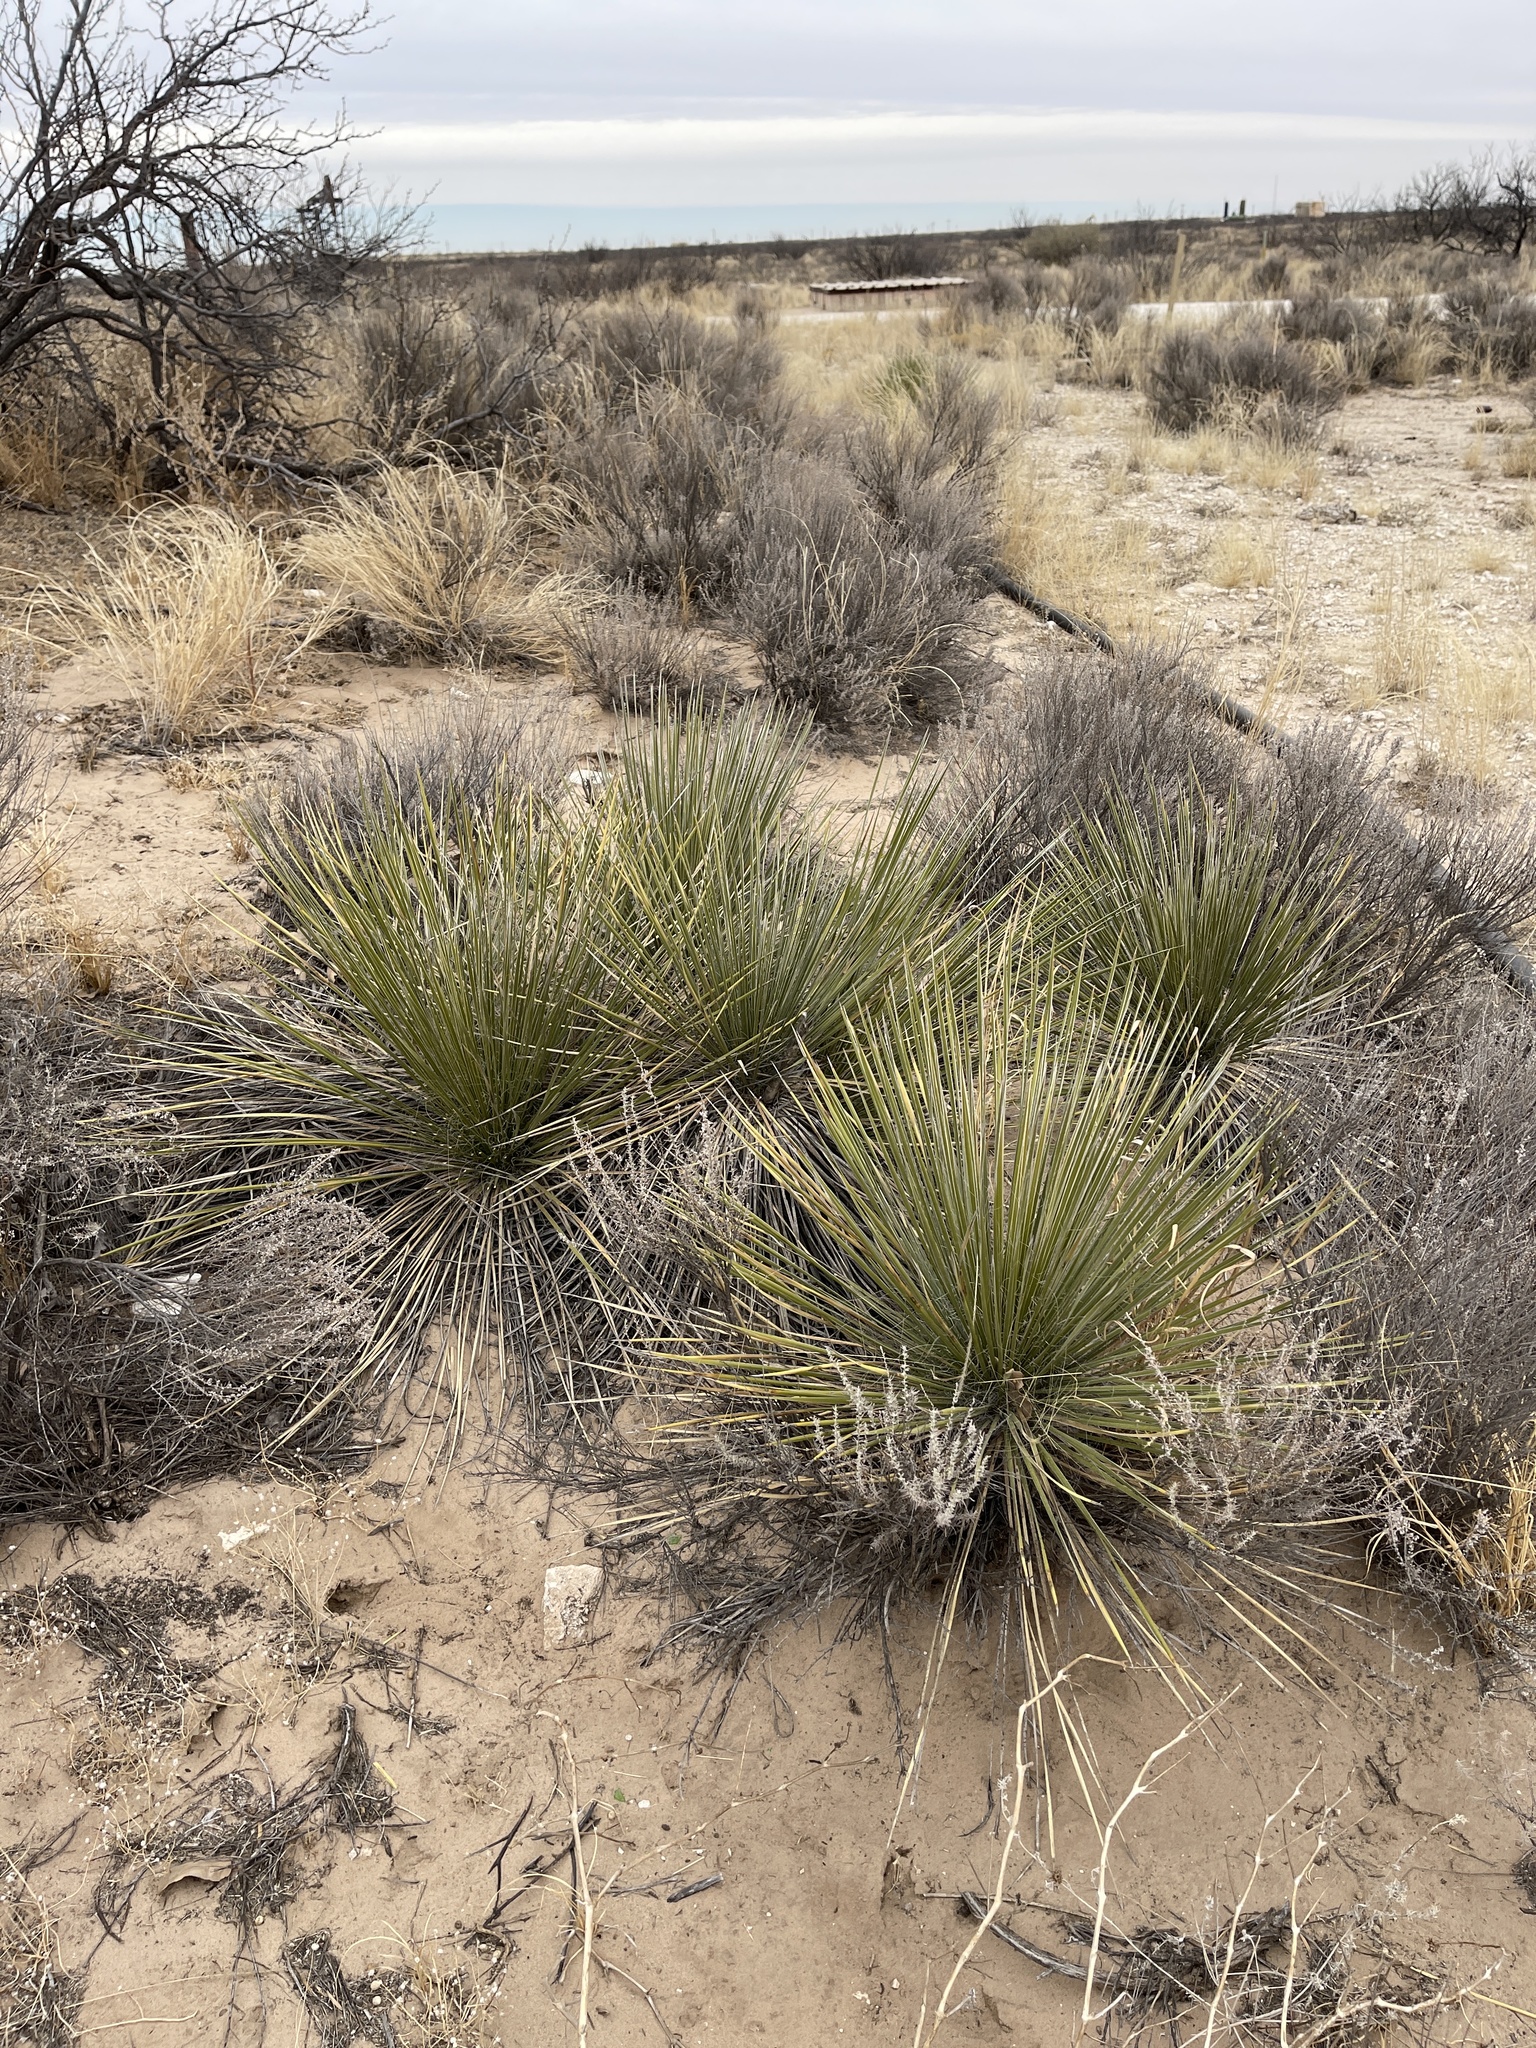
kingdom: Plantae
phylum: Tracheophyta
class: Liliopsida
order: Asparagales
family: Asparagaceae
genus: Yucca
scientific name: Yucca campestris
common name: Plains yucca
